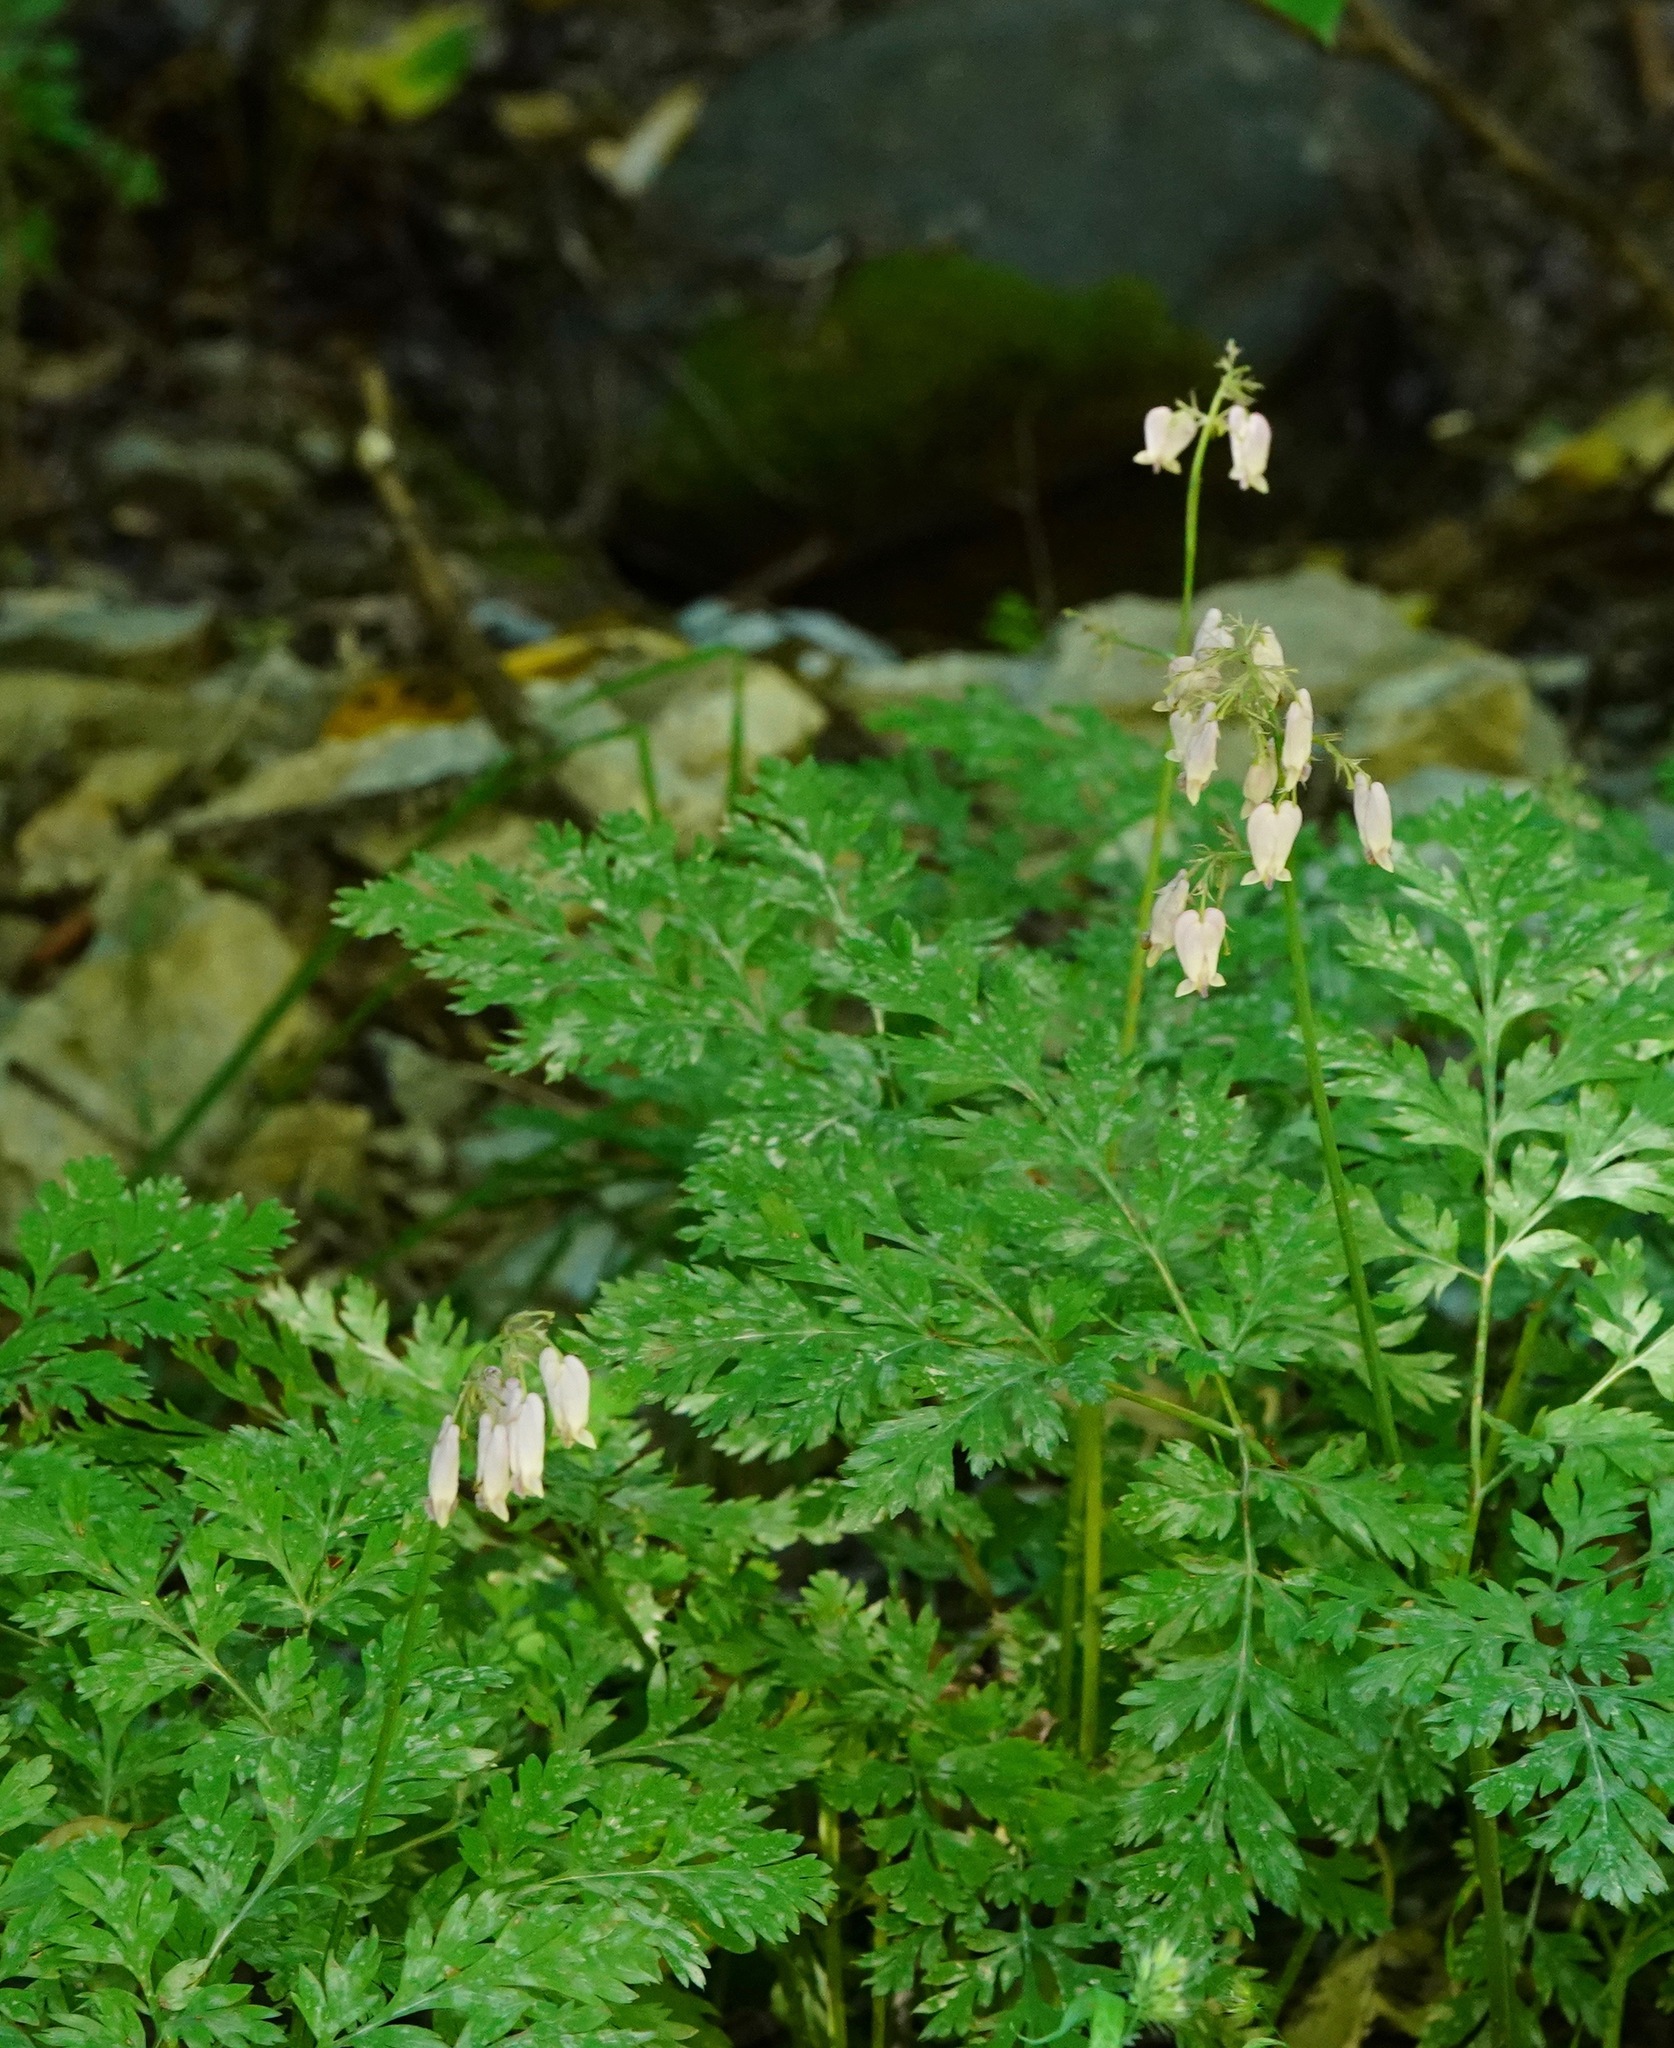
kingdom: Plantae
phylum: Tracheophyta
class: Magnoliopsida
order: Ranunculales
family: Papaveraceae
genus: Dicentra
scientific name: Dicentra formosa
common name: Bleeding-heart
